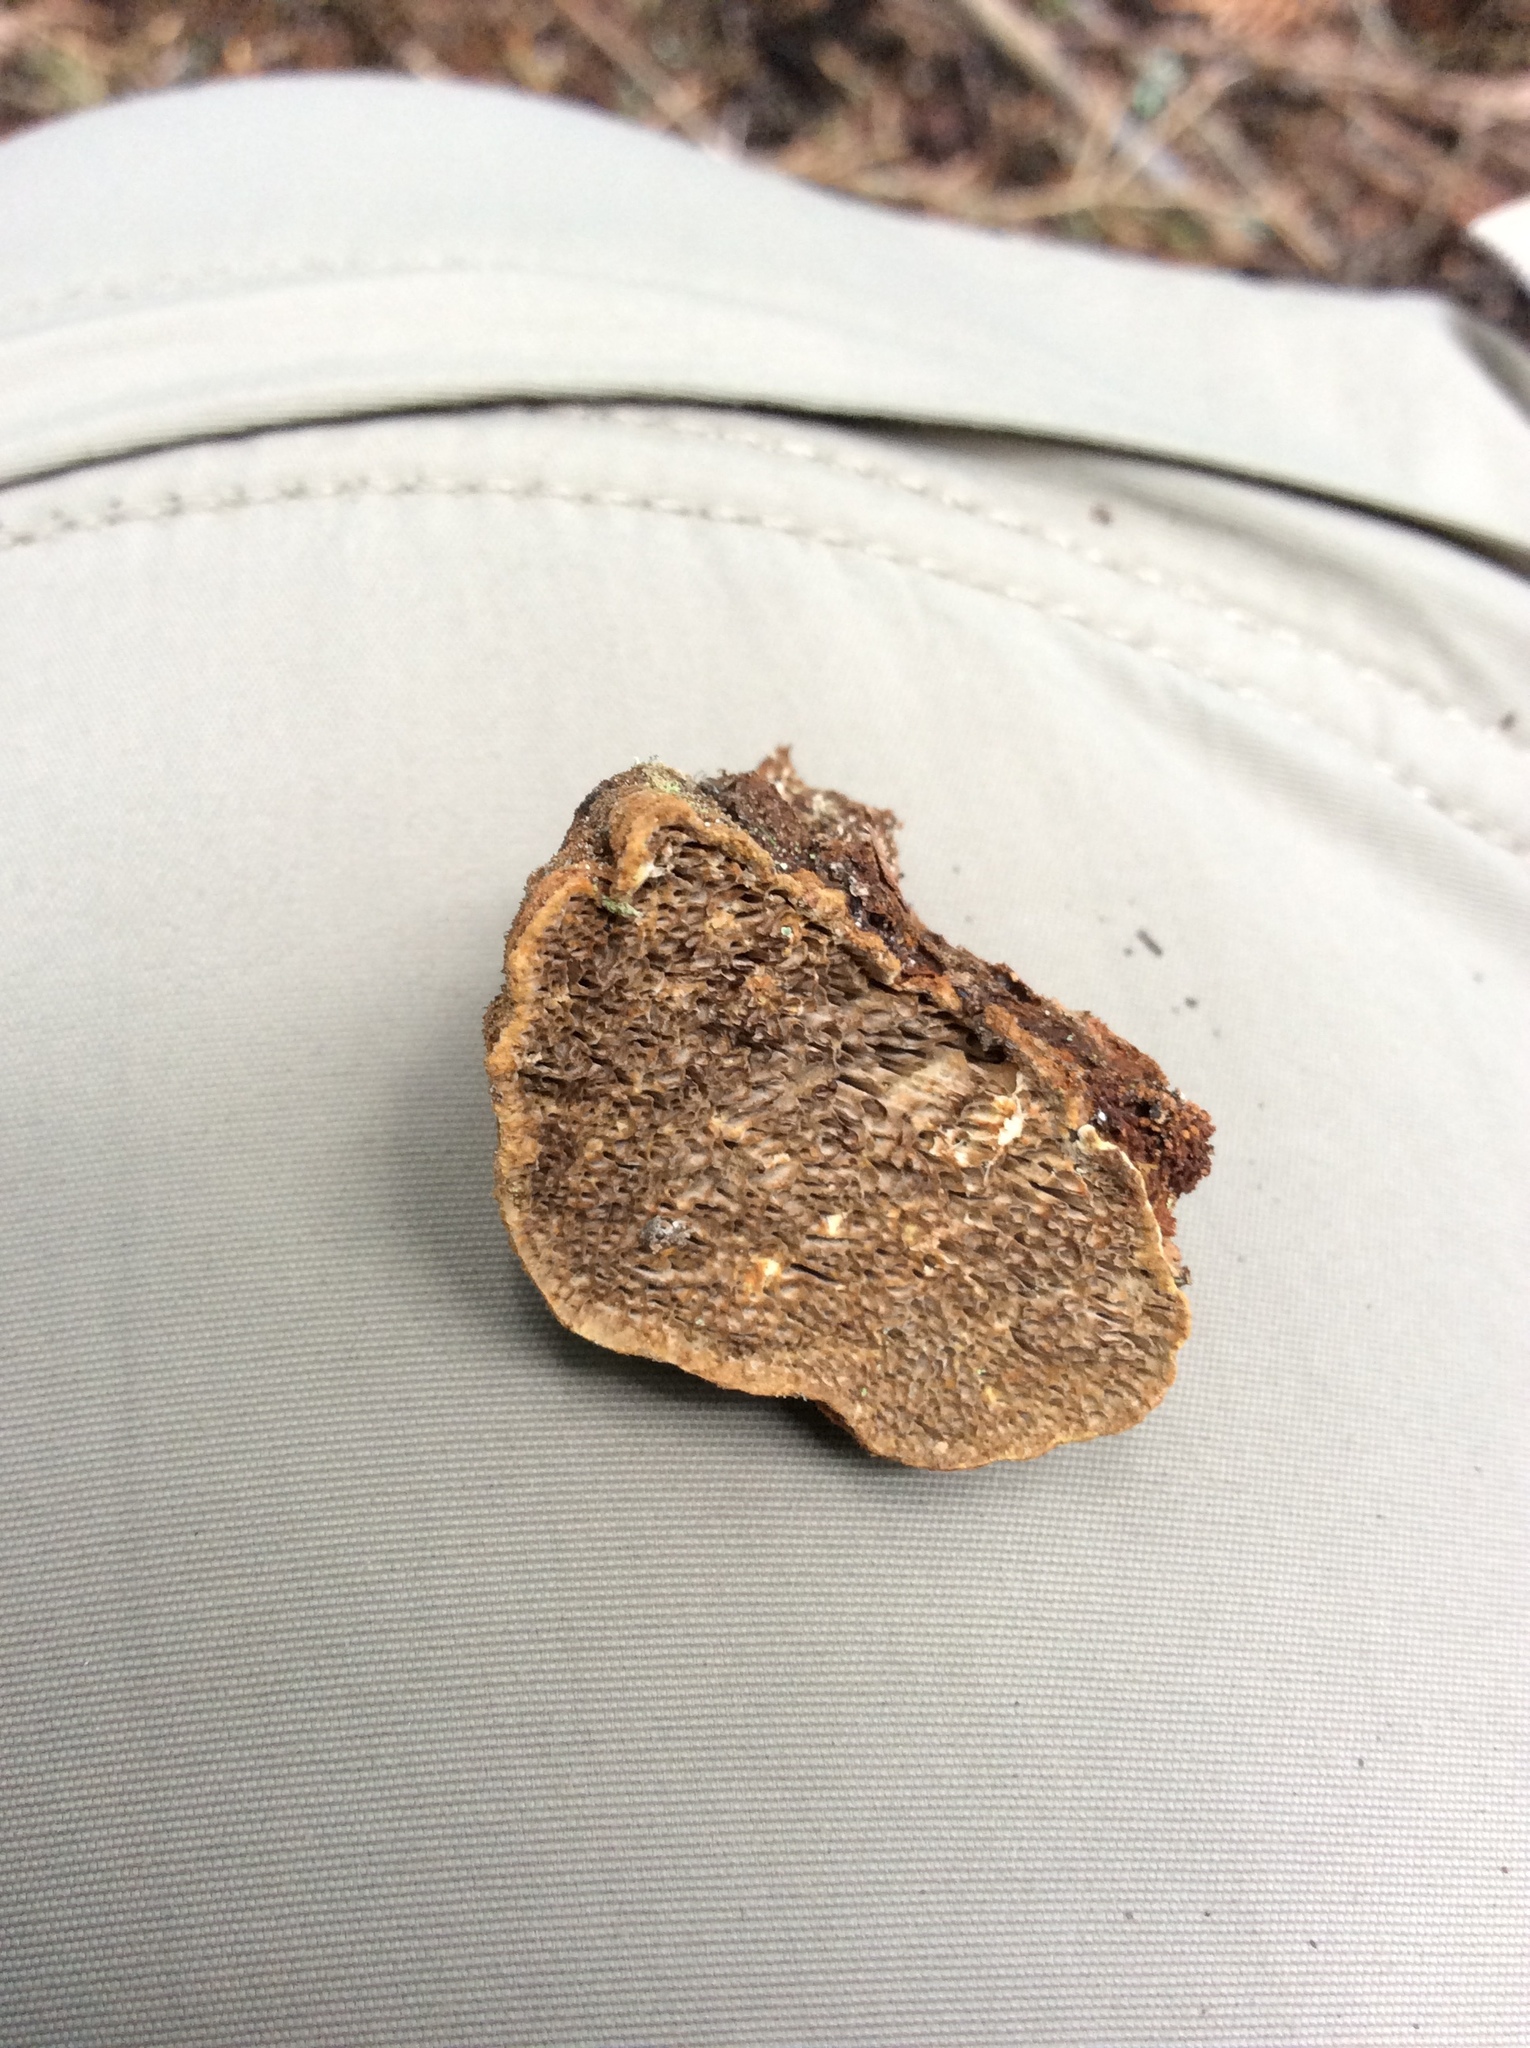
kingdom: Fungi
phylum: Basidiomycota
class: Agaricomycetes
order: Hymenochaetales
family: Hymenochaetaceae
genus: Porodaedalea
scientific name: Porodaedalea pini
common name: Pine bracket
